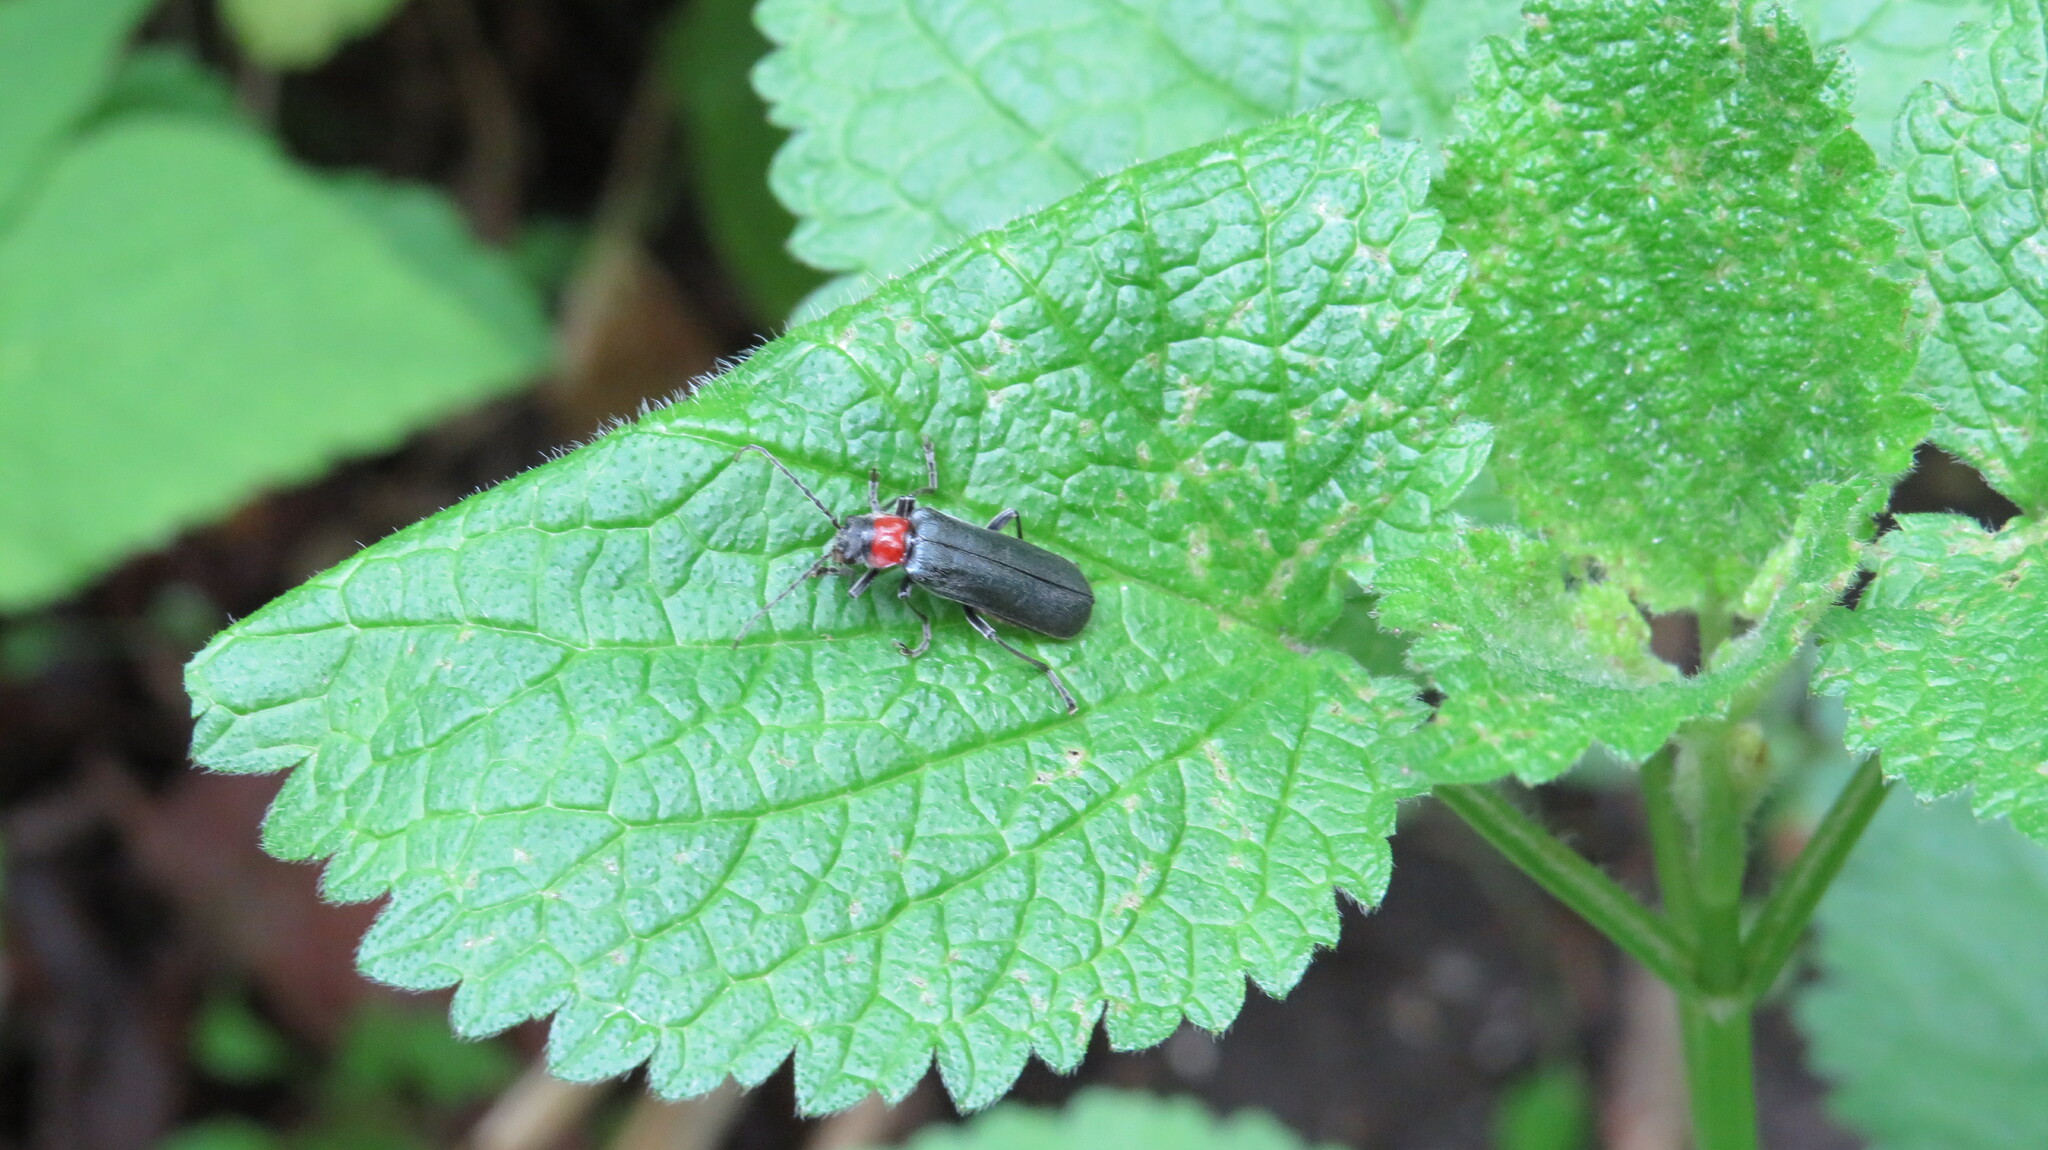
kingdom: Animalia
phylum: Arthropoda
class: Insecta
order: Coleoptera
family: Cantharidae
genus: Cordicantharis
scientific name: Cordicantharis cordicollis
